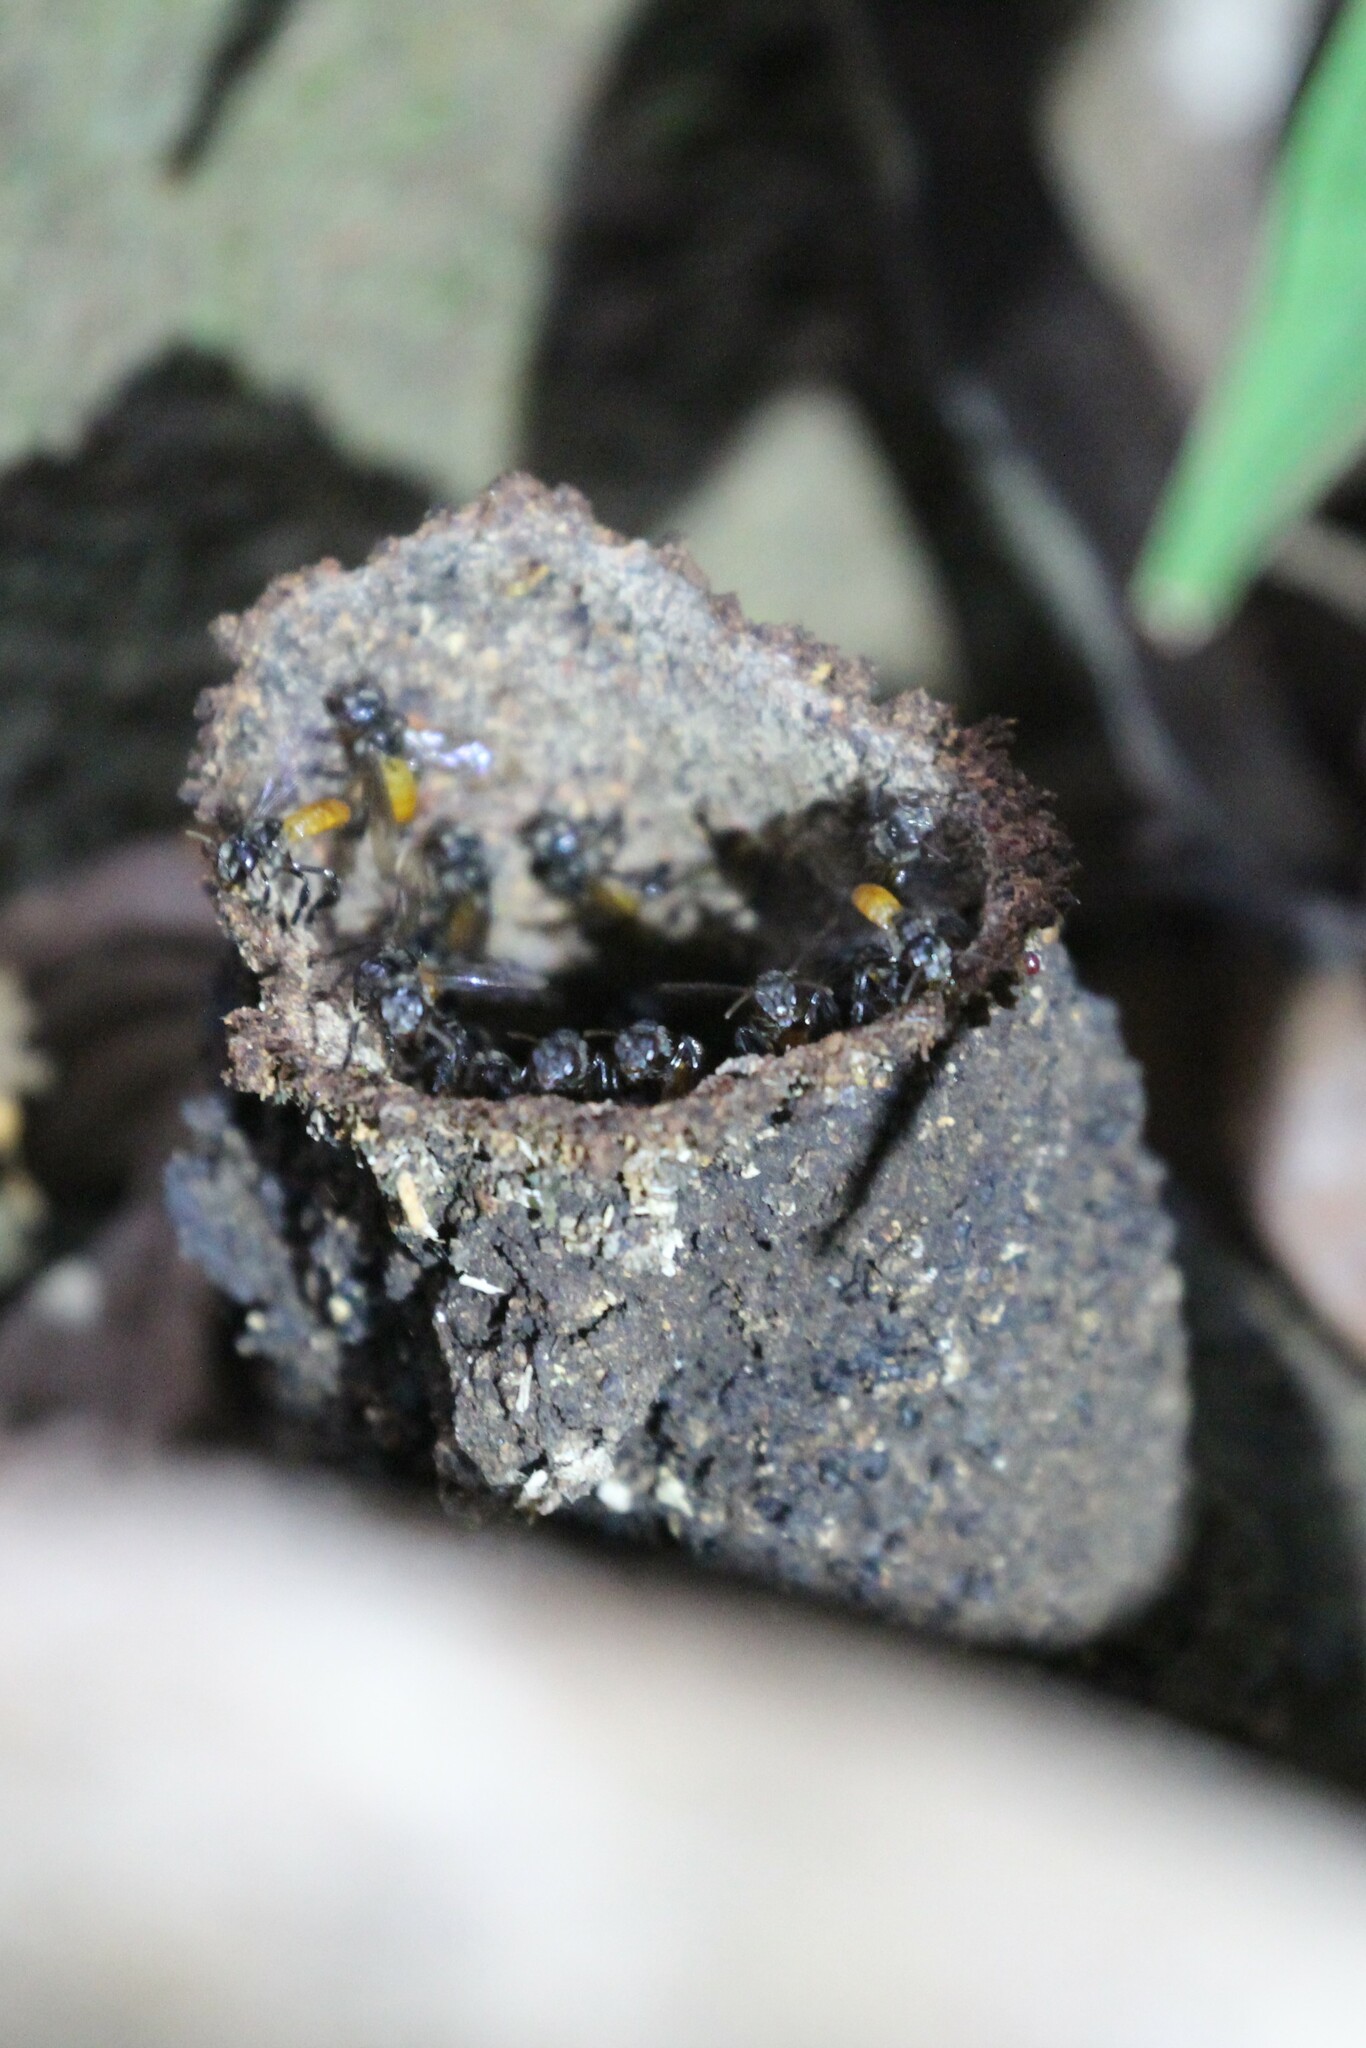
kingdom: Animalia
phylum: Arthropoda
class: Insecta
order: Hymenoptera
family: Apidae
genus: Trigona
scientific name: Trigona fulviventris
